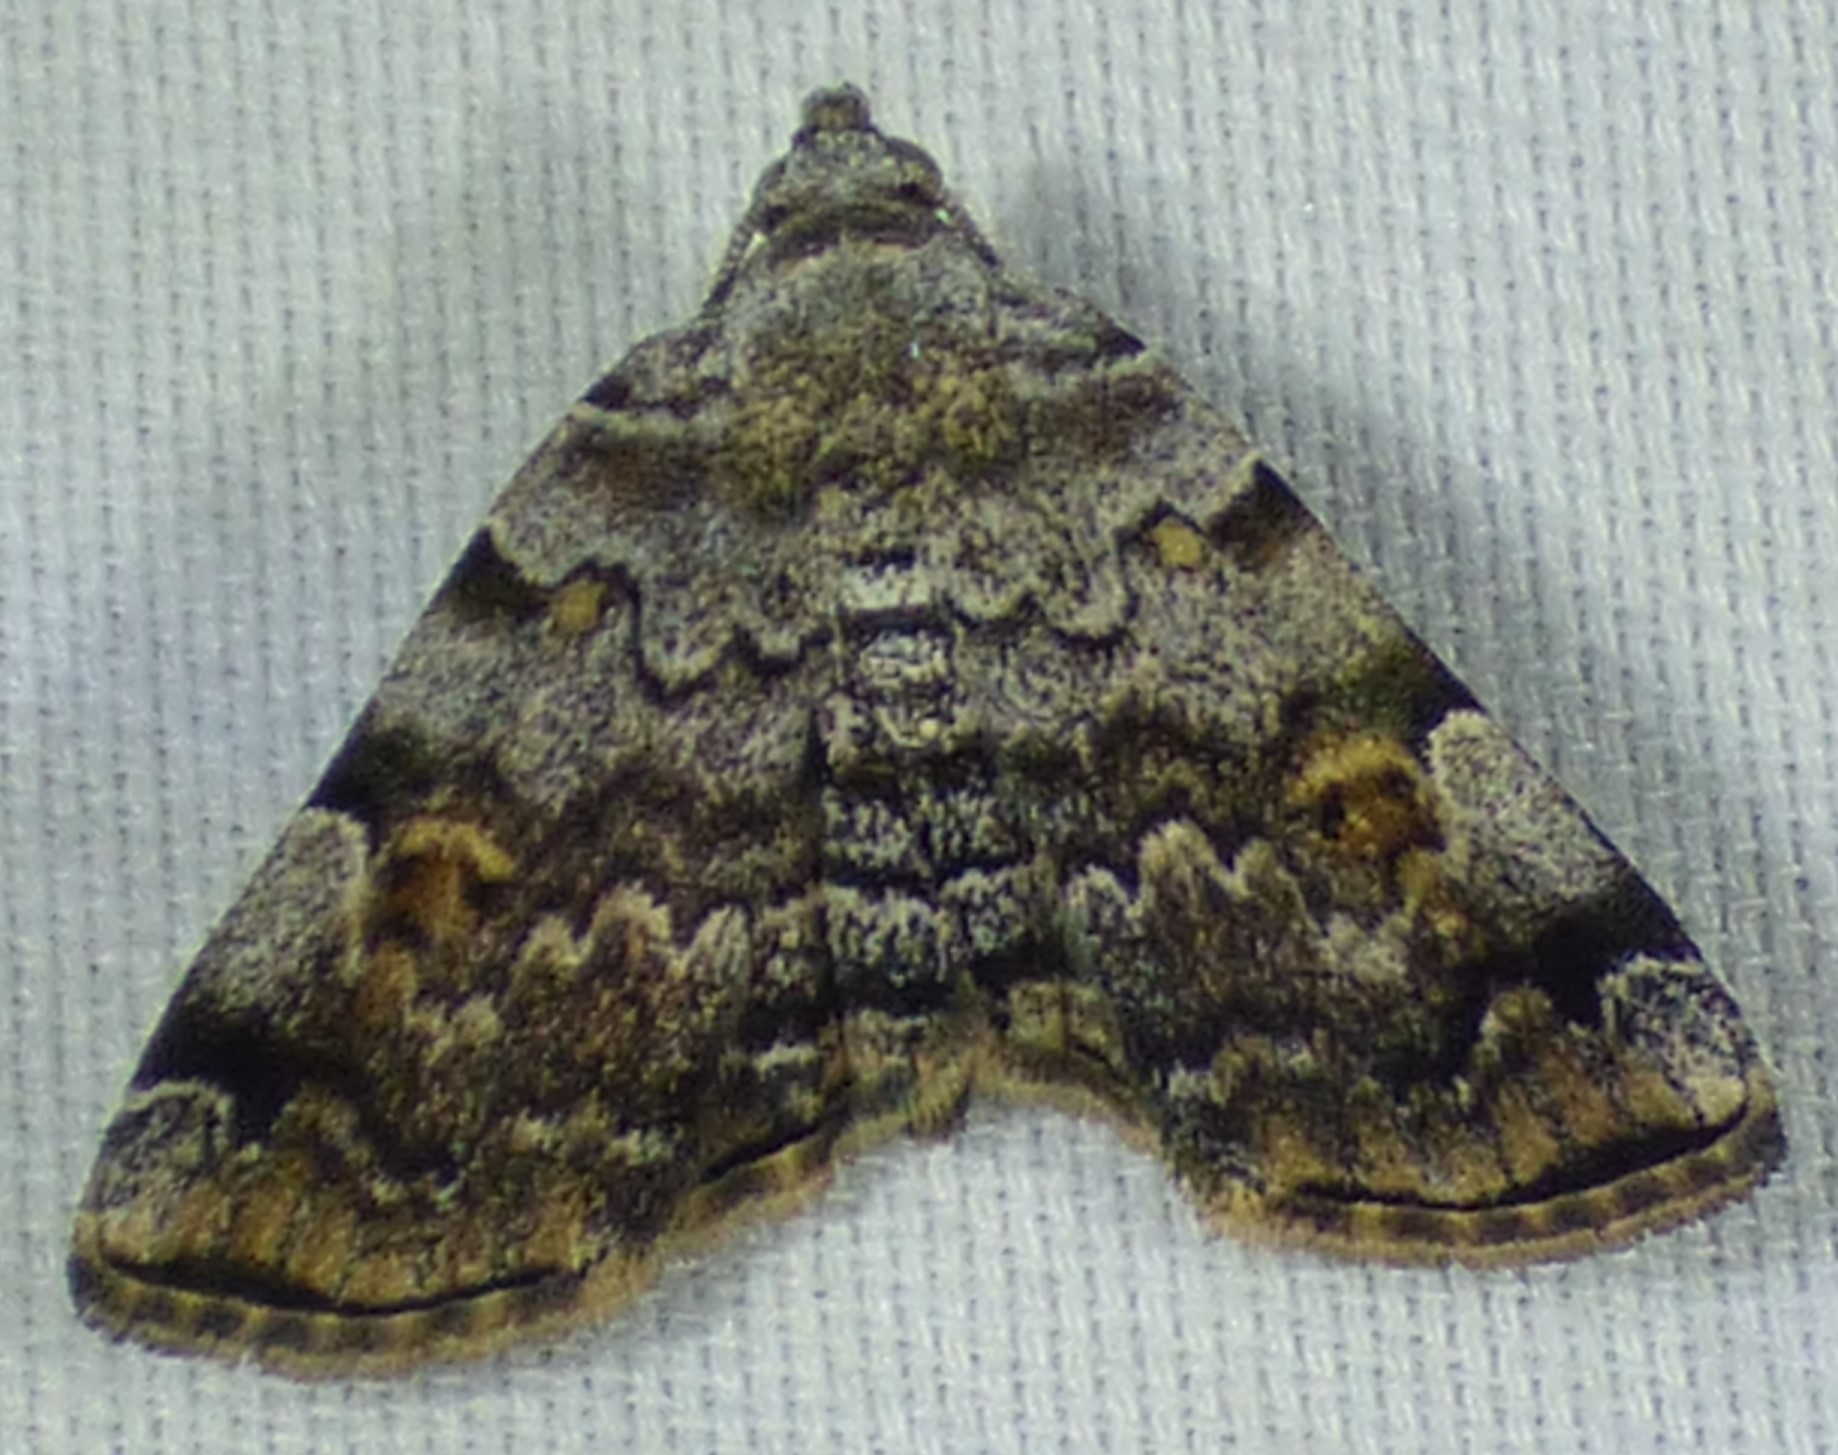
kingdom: Animalia
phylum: Arthropoda
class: Insecta
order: Lepidoptera
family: Erebidae
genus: Idia
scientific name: Idia americalis
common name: American idia moth
